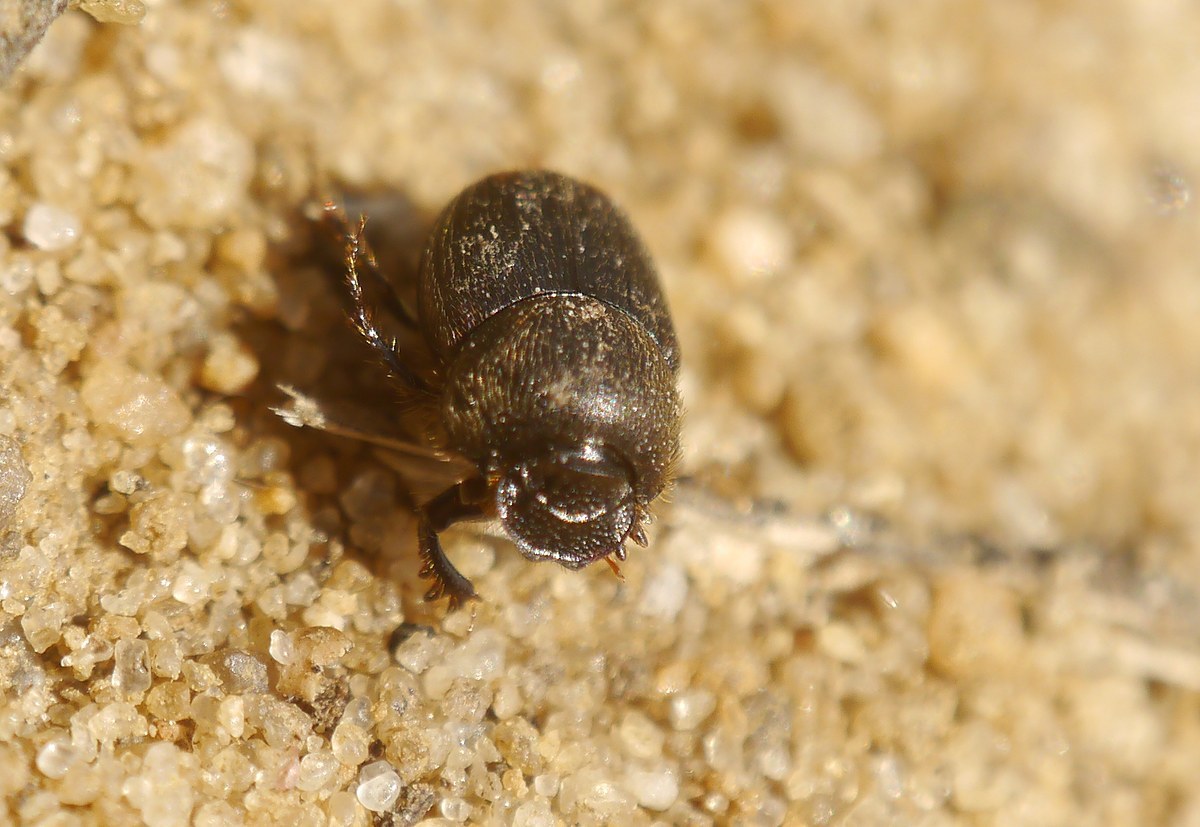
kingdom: Animalia
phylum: Arthropoda
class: Insecta
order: Coleoptera
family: Scarabaeidae
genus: Onthophagus
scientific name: Onthophagus furcatus
